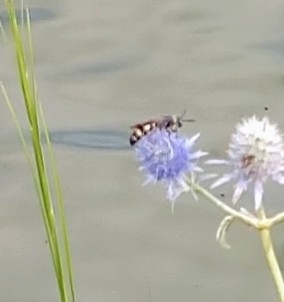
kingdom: Animalia
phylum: Arthropoda
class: Insecta
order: Hymenoptera
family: Scoliidae
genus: Dielis
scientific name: Dielis
